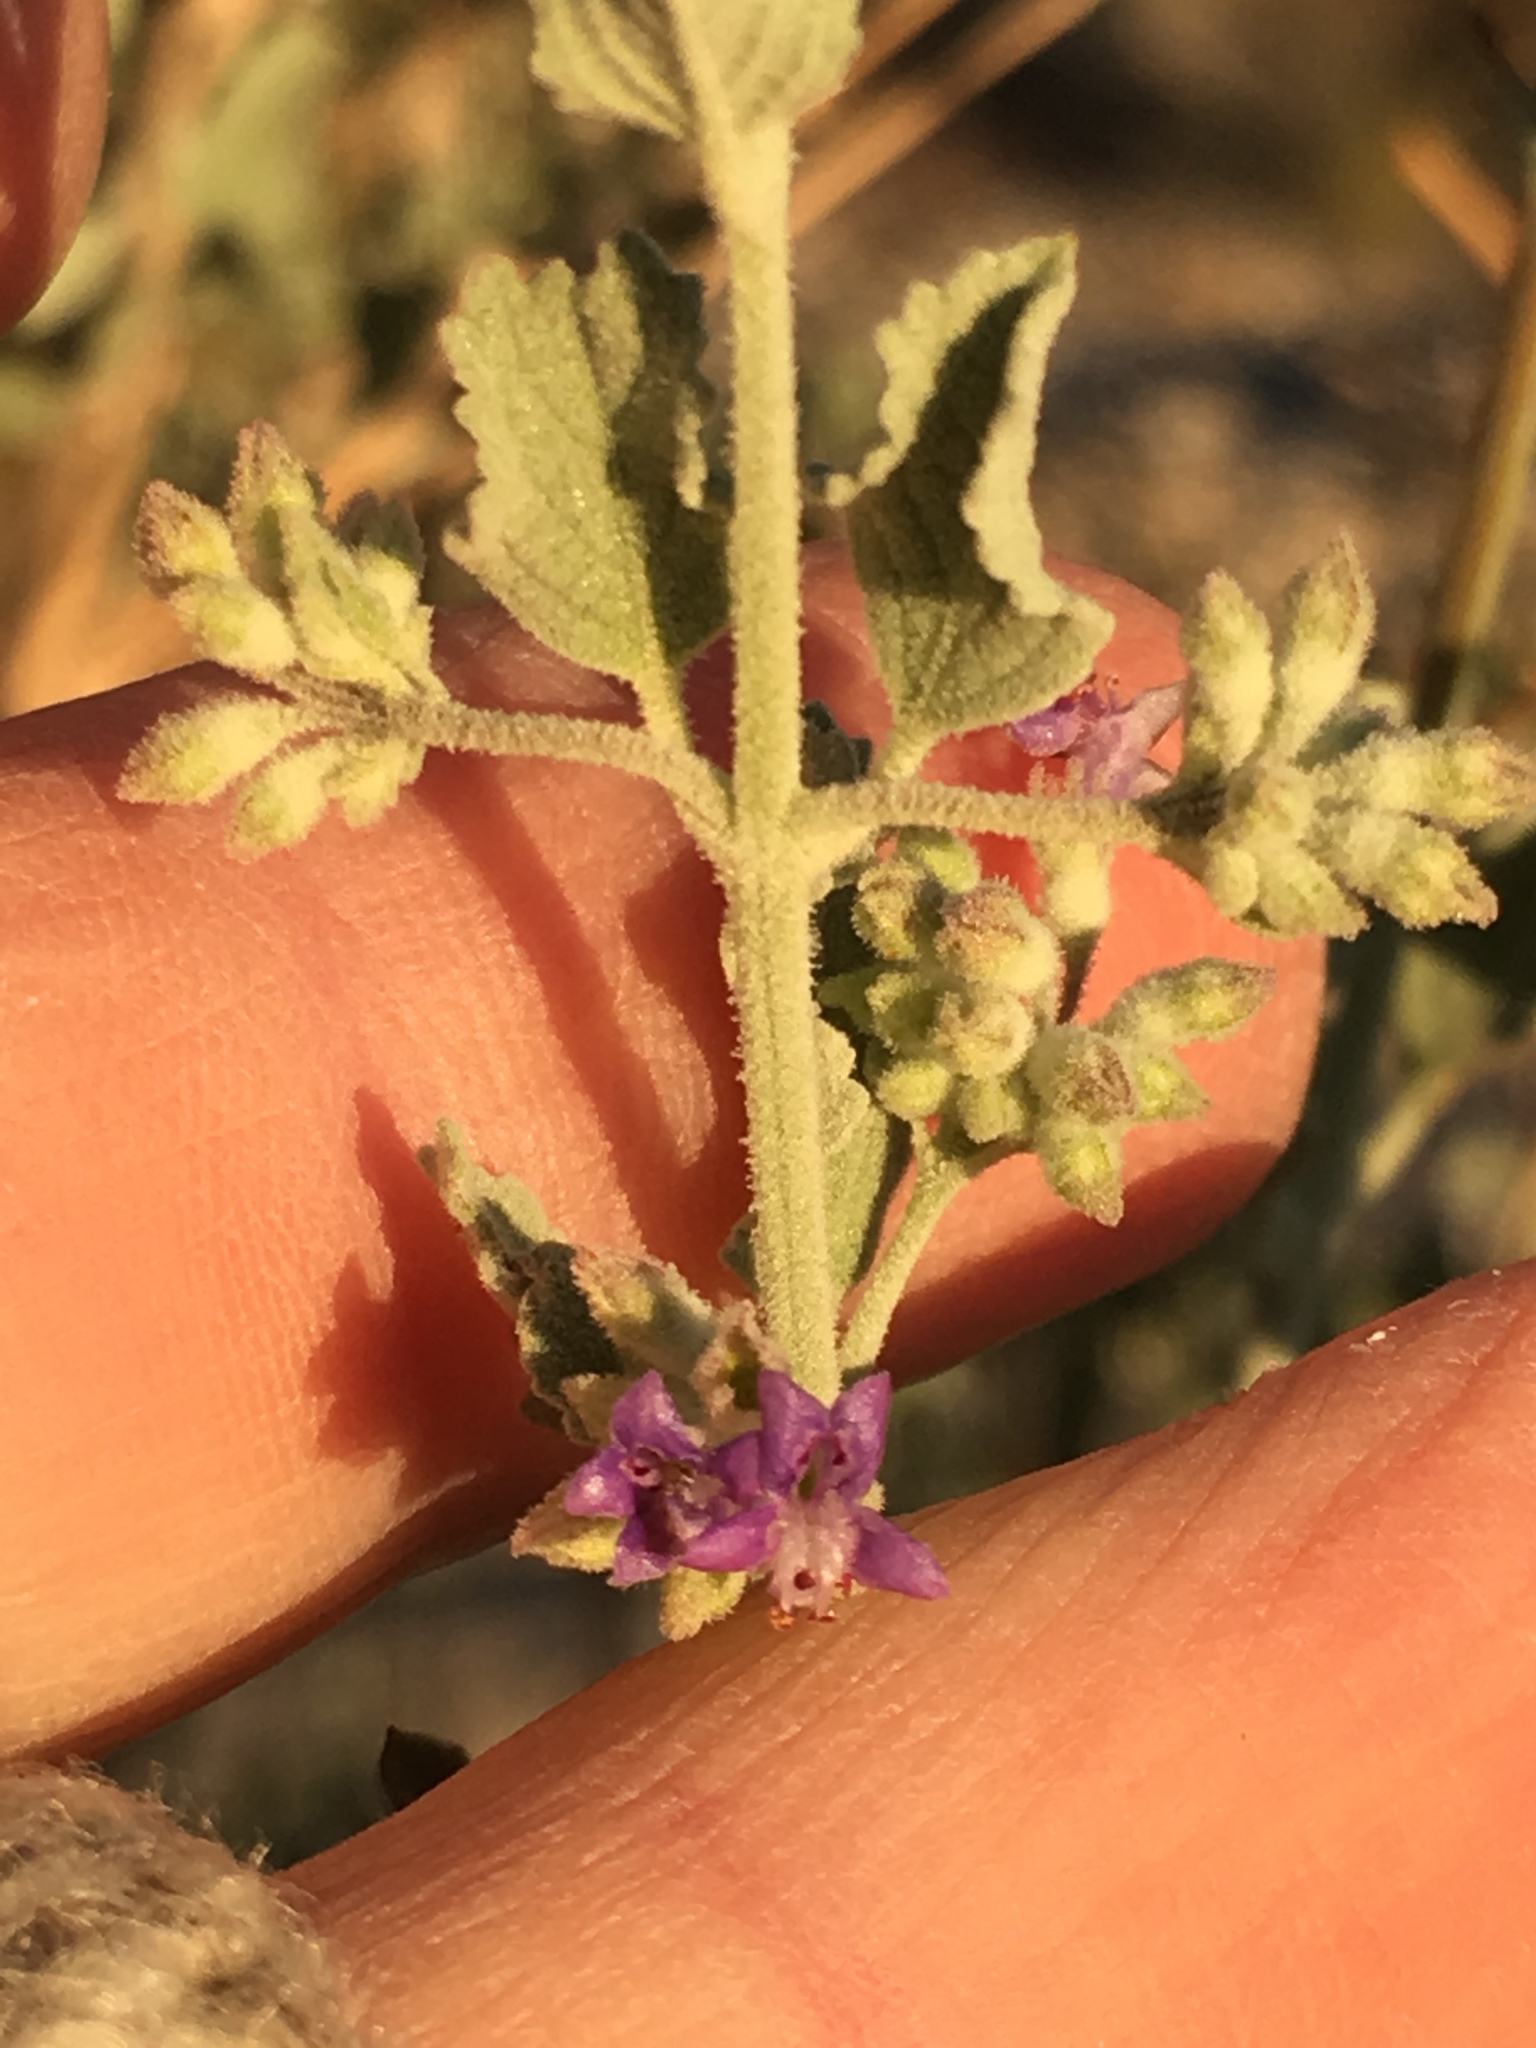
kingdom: Plantae
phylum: Tracheophyta
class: Magnoliopsida
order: Lamiales
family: Lamiaceae
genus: Condea
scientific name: Condea emoryi
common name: Chia
